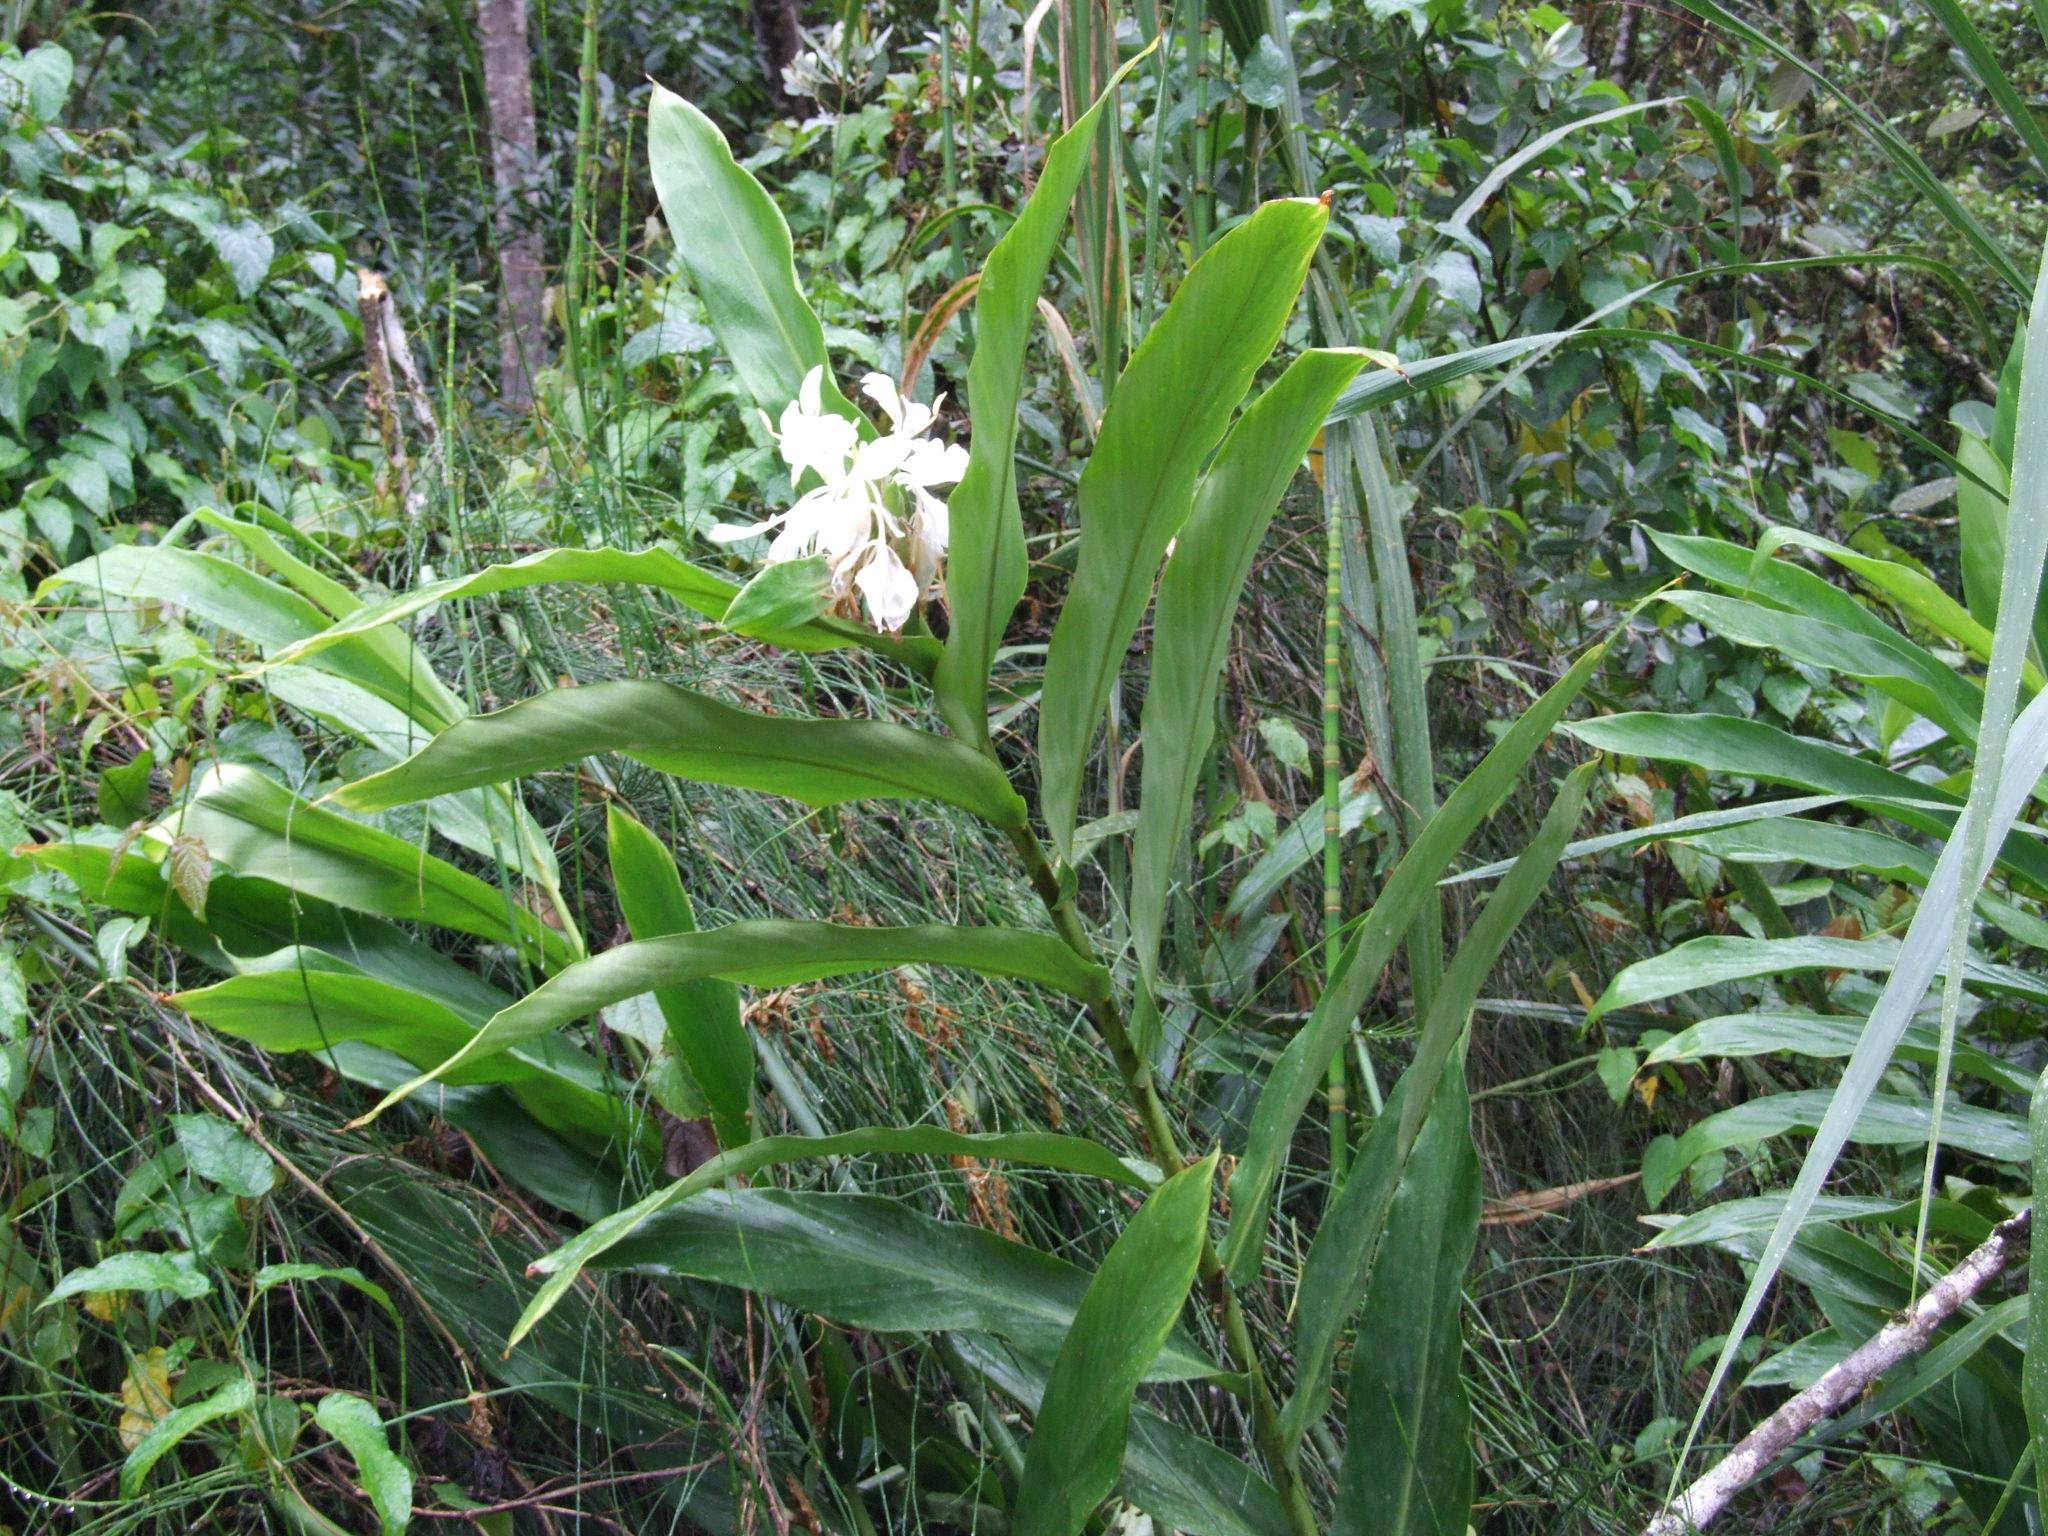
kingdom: Plantae
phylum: Tracheophyta
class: Liliopsida
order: Zingiberales
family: Zingiberaceae
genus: Hedychium
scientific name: Hedychium coronarium
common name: White garland-lily
